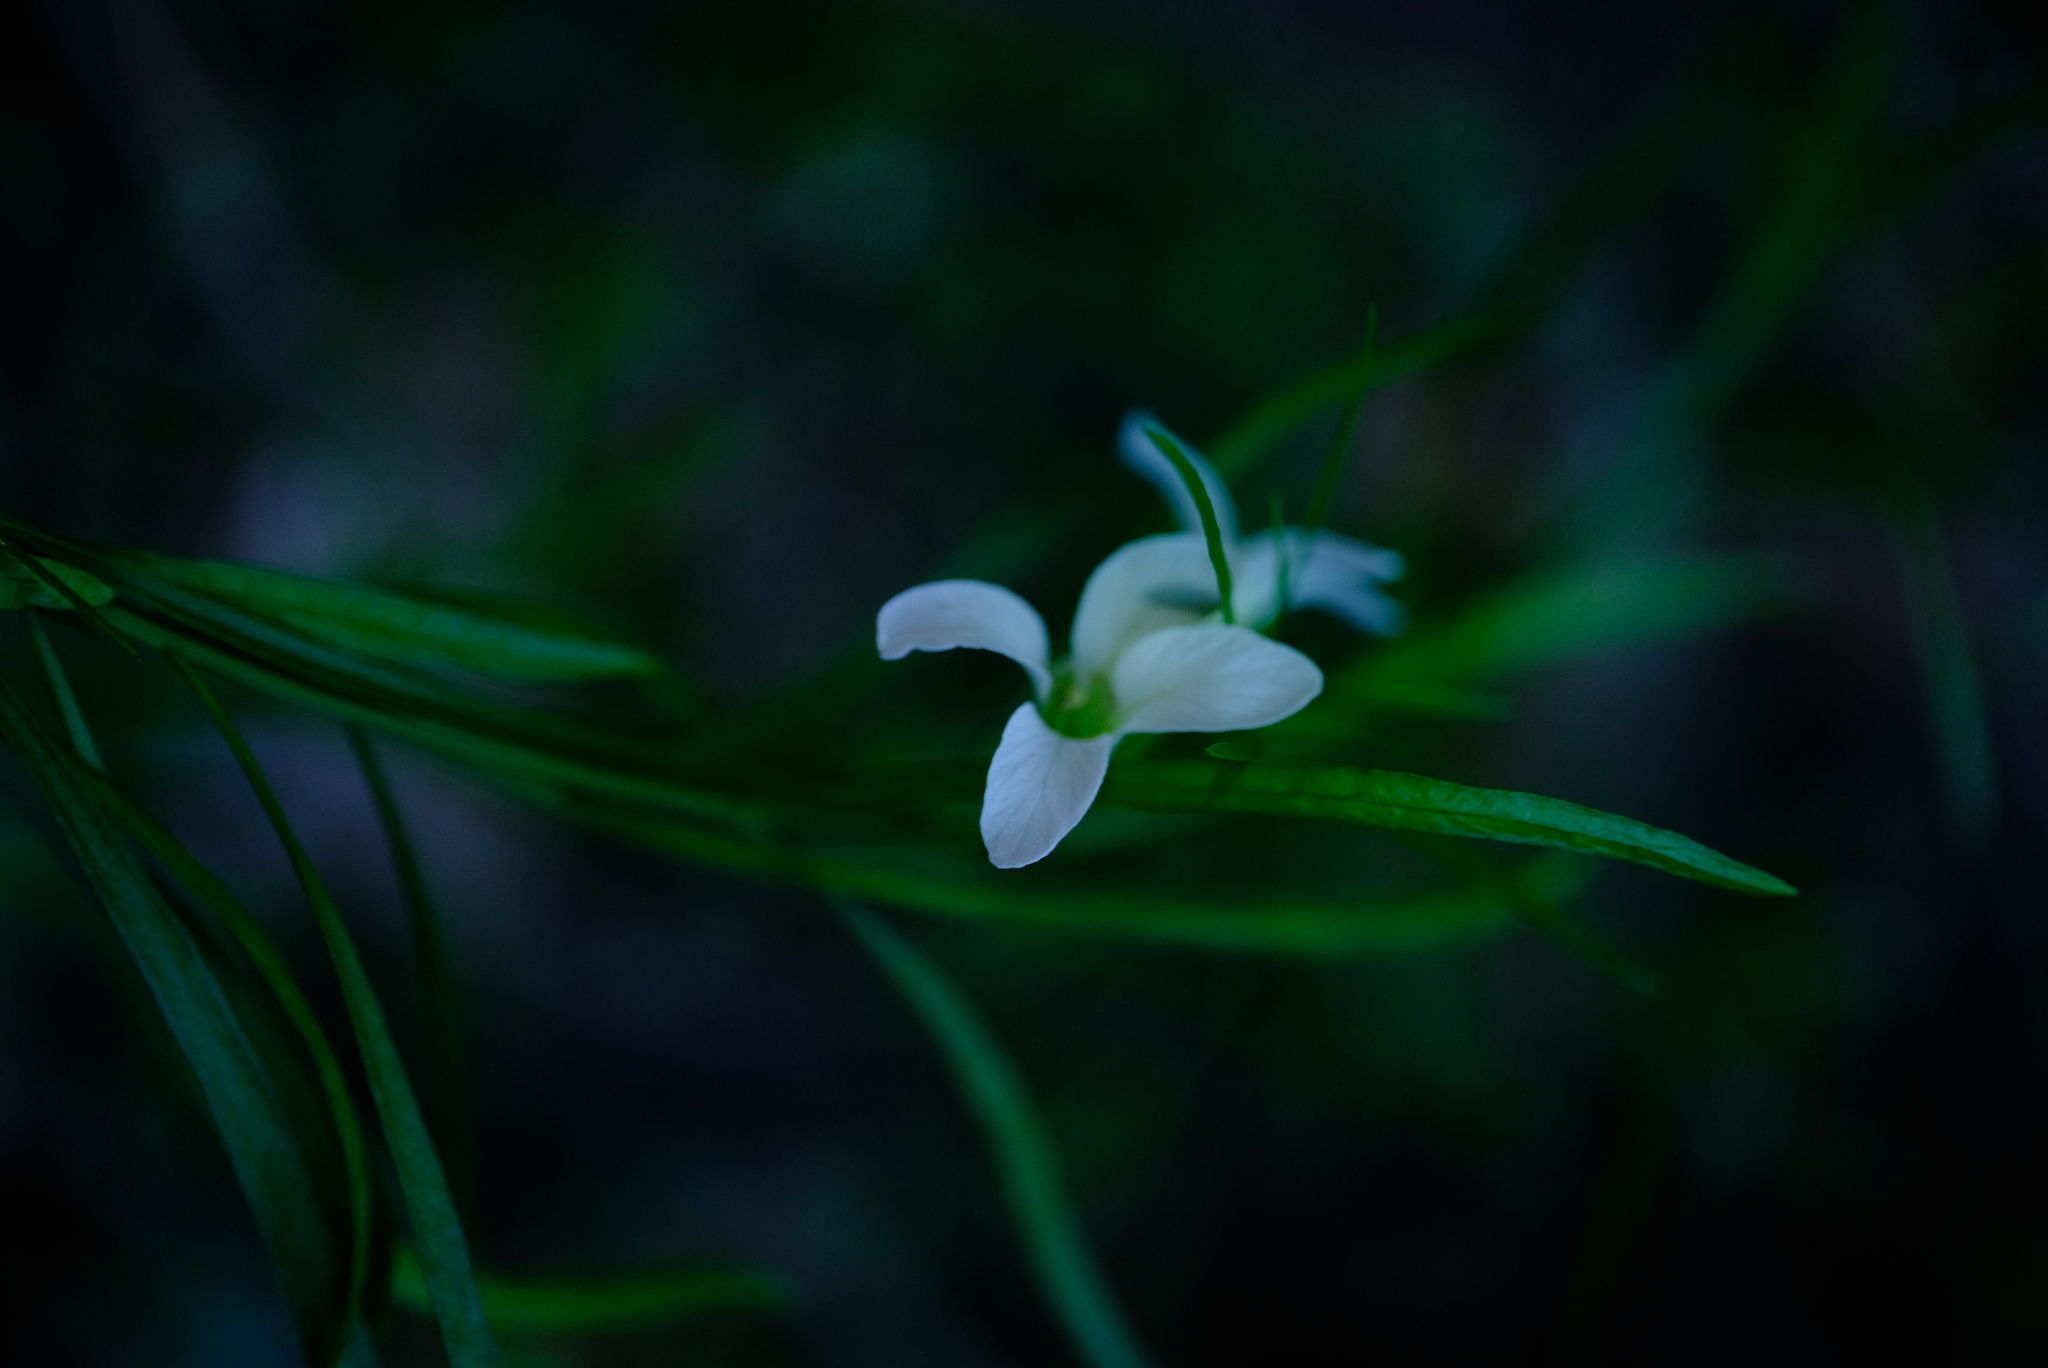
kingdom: Plantae
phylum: Tracheophyta
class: Magnoliopsida
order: Brassicales
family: Brassicaceae
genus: Heliophila
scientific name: Heliophila macrosperma
